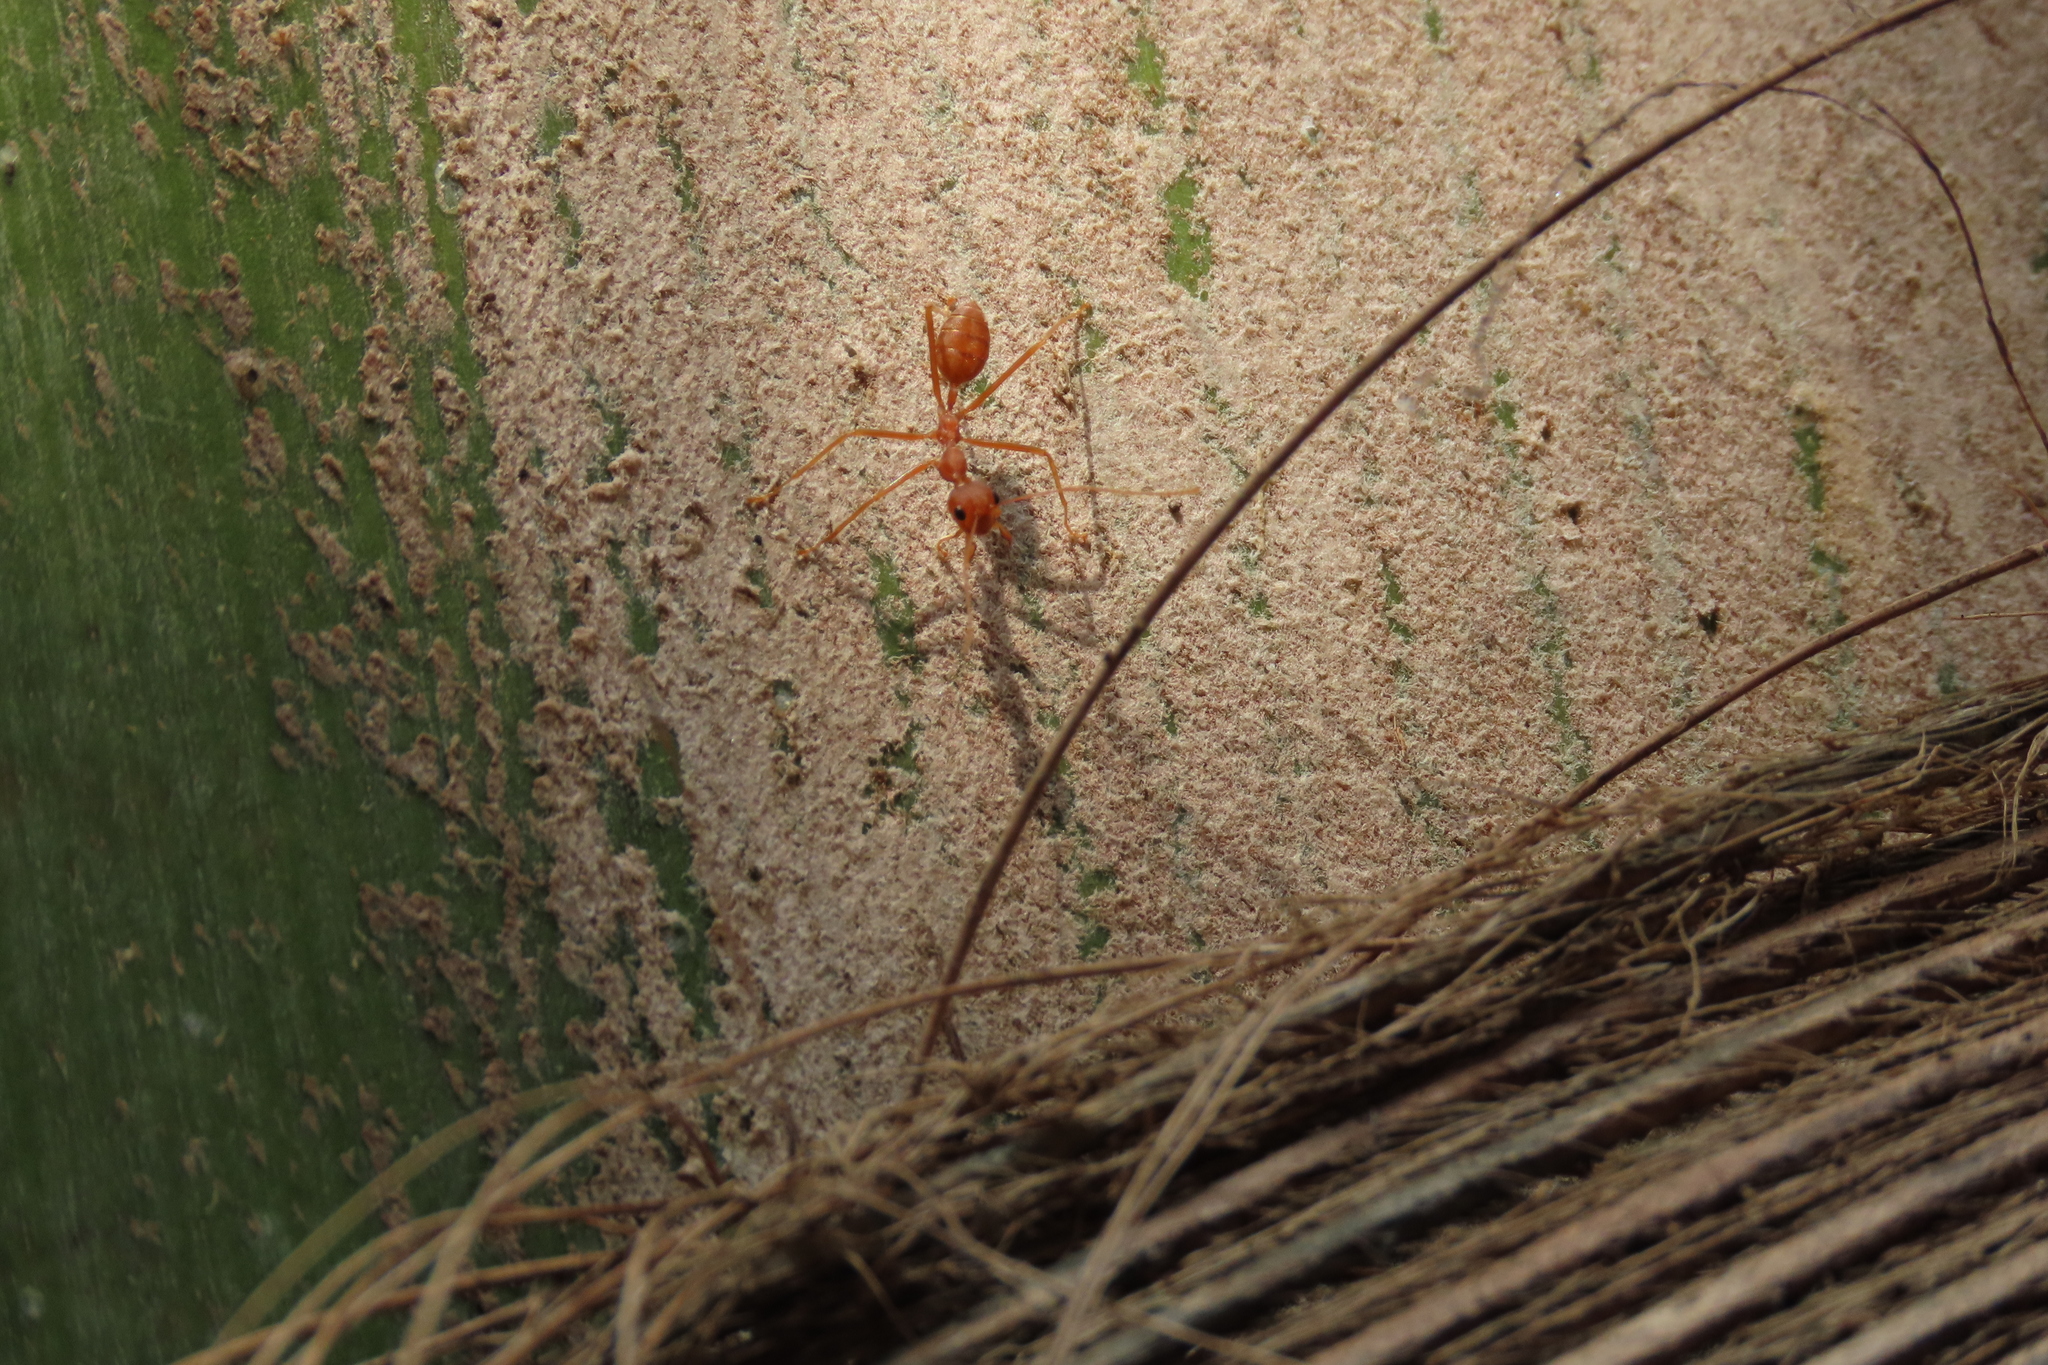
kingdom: Animalia
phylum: Arthropoda
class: Insecta
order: Hymenoptera
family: Formicidae
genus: Oecophylla
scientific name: Oecophylla smaragdina
